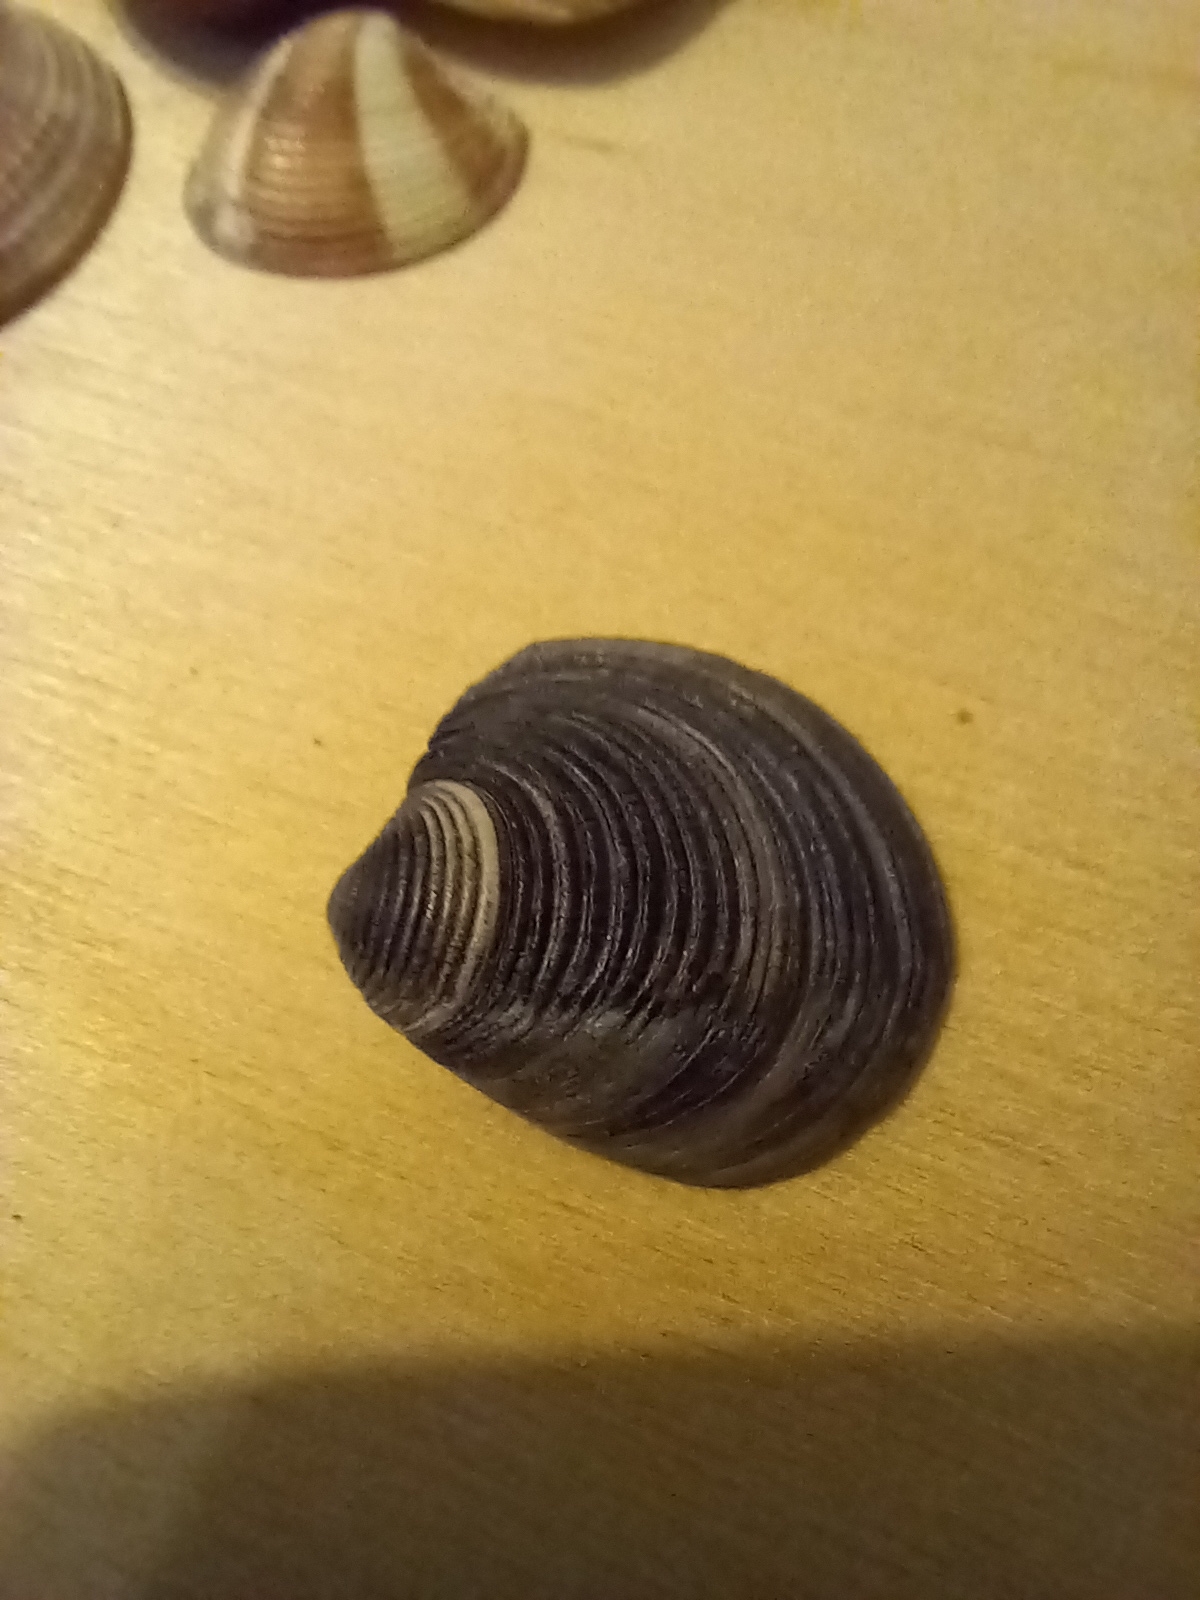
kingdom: Animalia
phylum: Mollusca
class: Bivalvia
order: Venerida
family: Veneridae
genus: Chamelea
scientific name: Chamelea gallina
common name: Chicken venus
